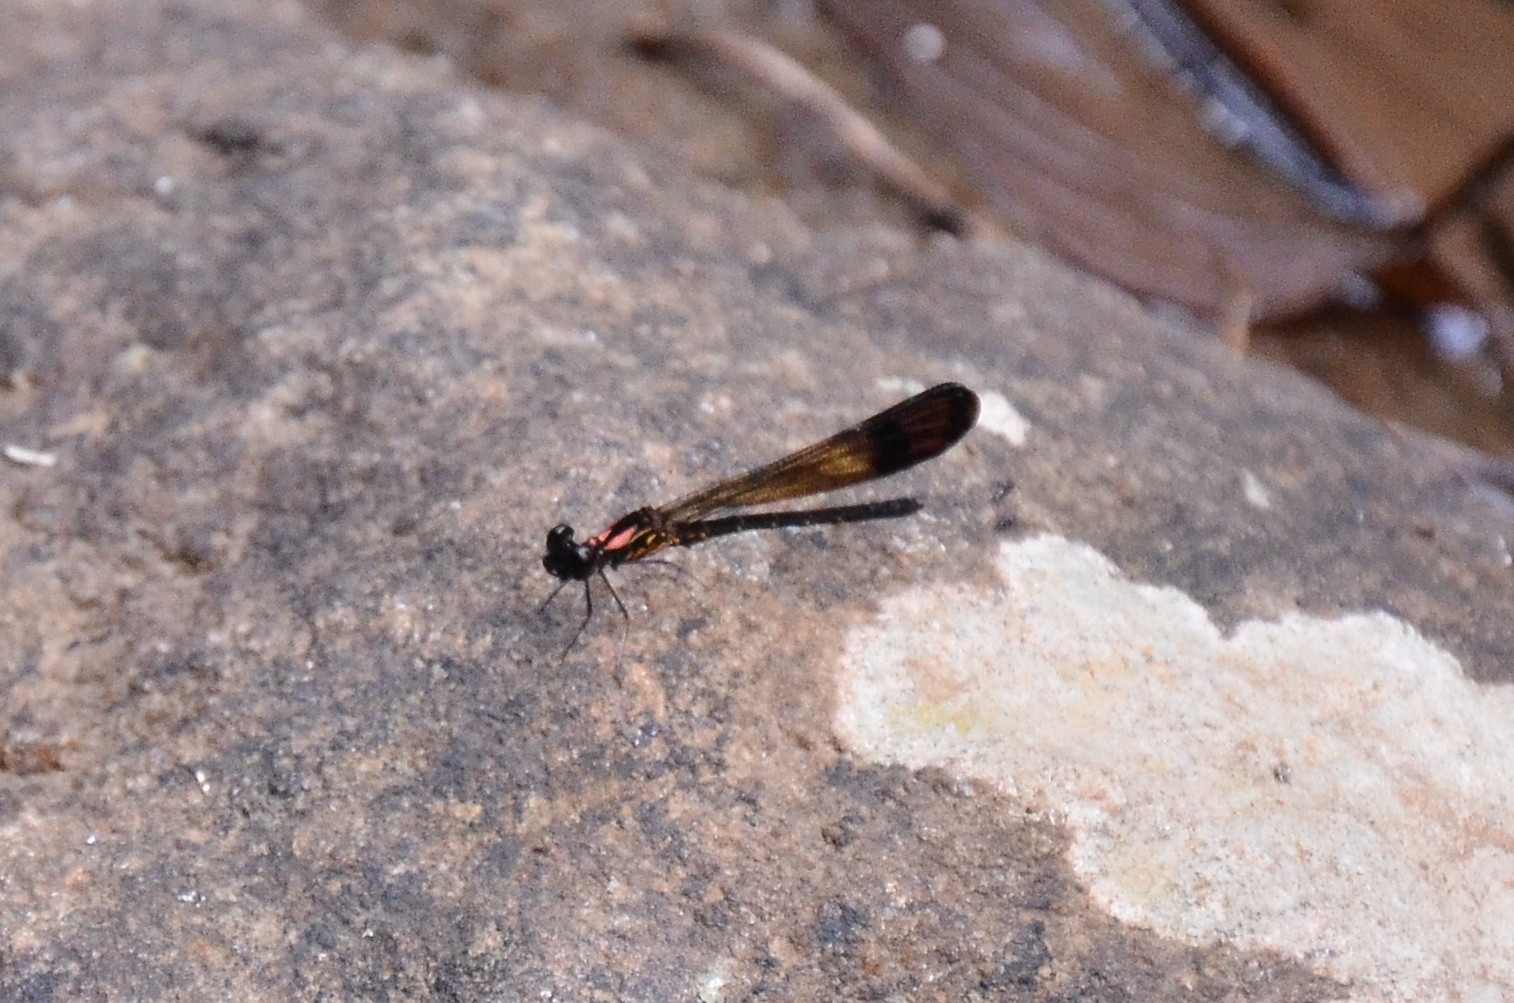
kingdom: Animalia
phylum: Arthropoda
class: Insecta
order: Odonata
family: Chlorocyphidae
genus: Heliocypha
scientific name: Heliocypha bisignata
